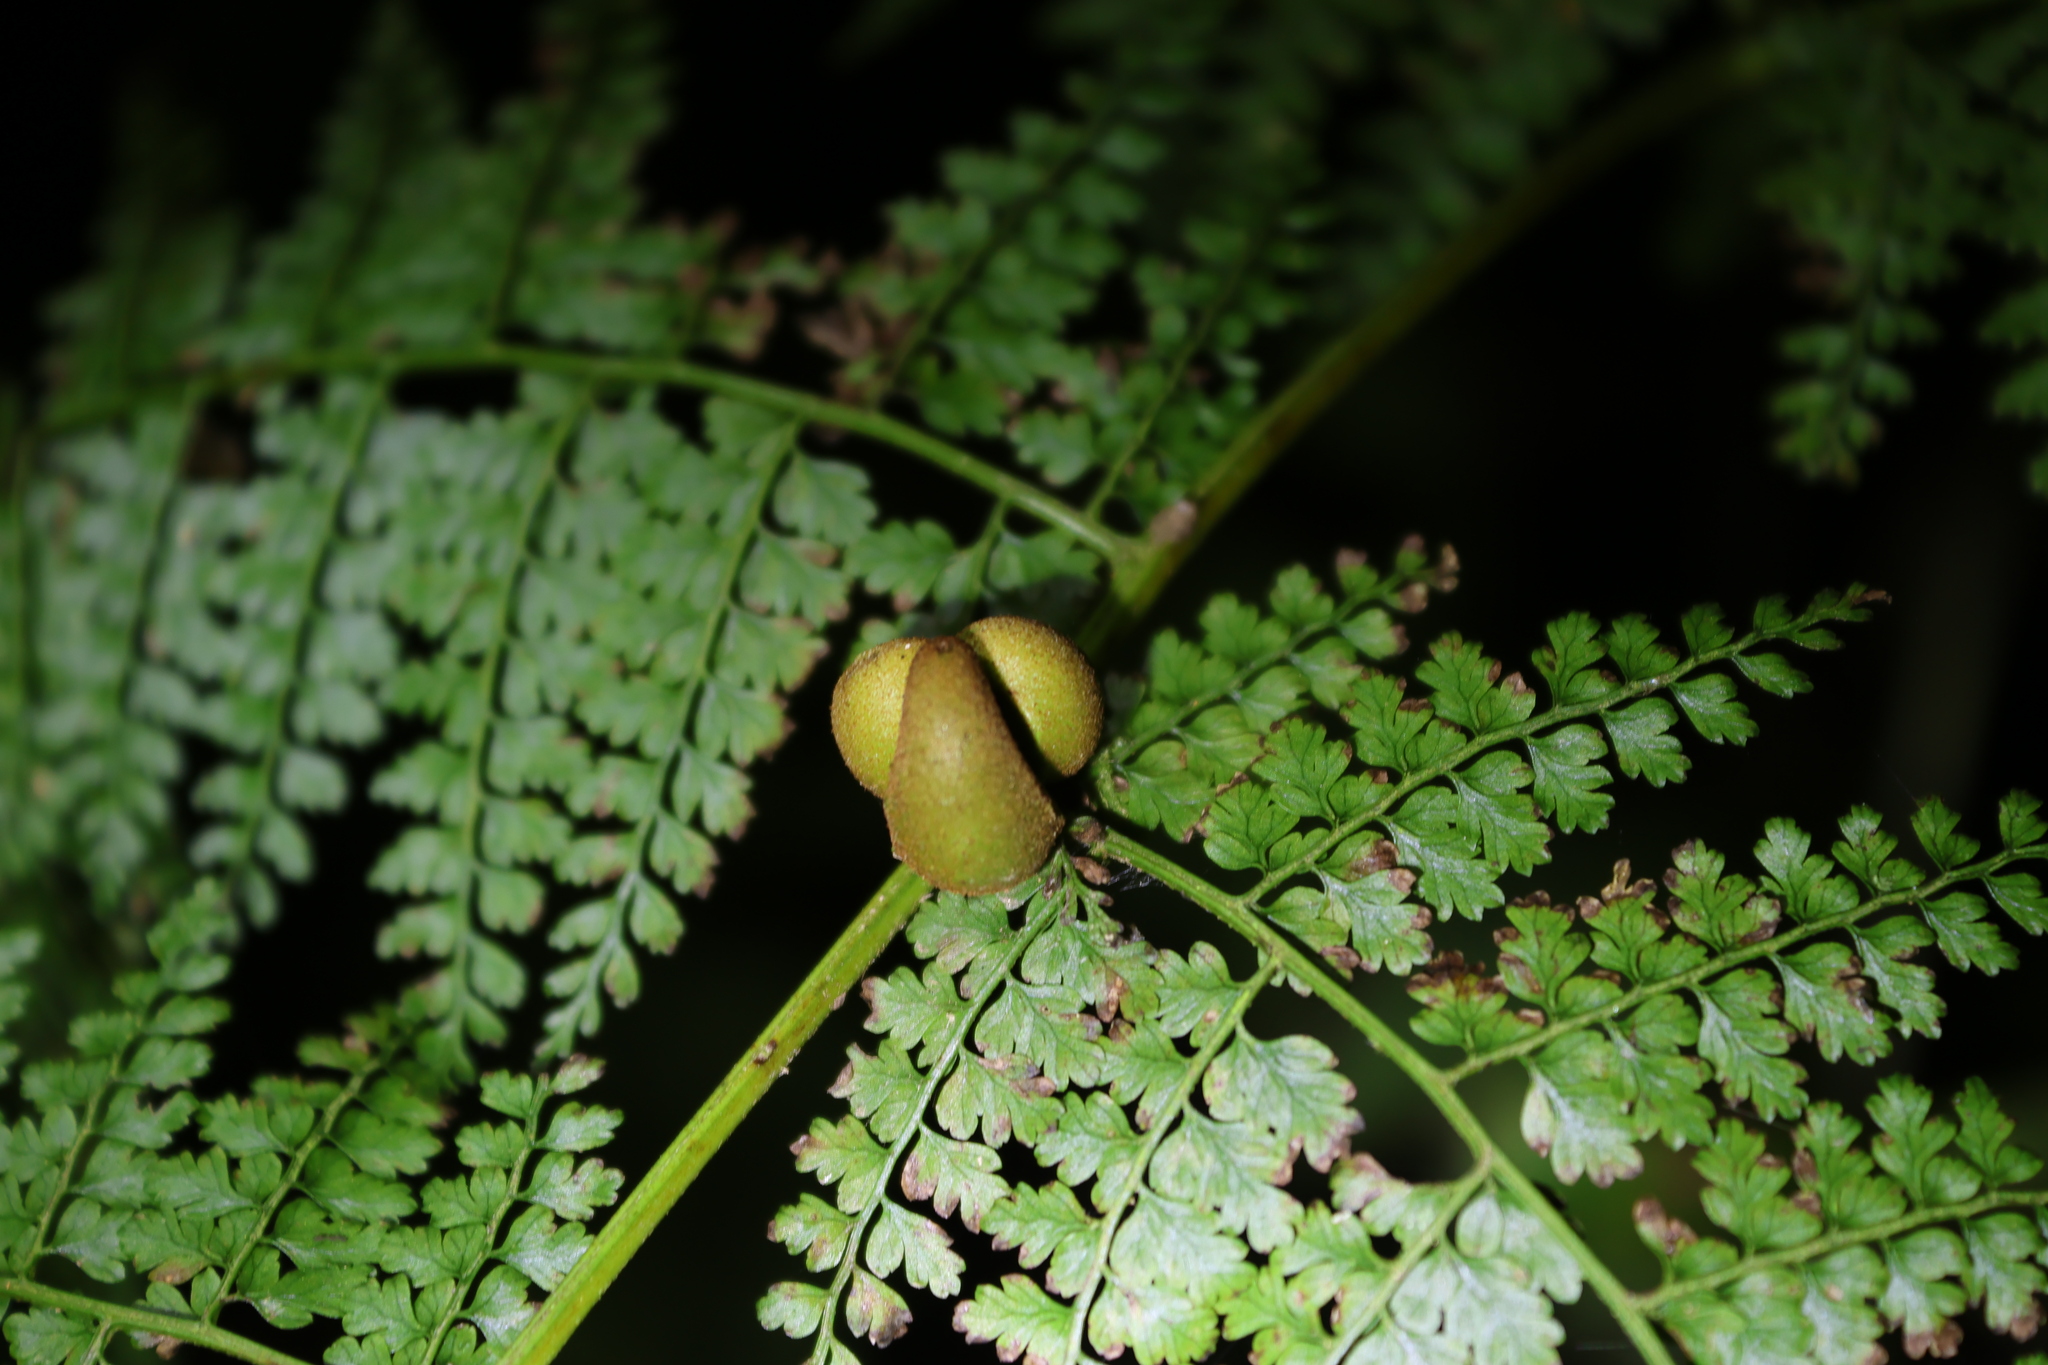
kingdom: Plantae
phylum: Tracheophyta
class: Polypodiopsida
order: Polypodiales
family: Dennstaedtiaceae
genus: Monachosorum
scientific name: Monachosorum henryi
